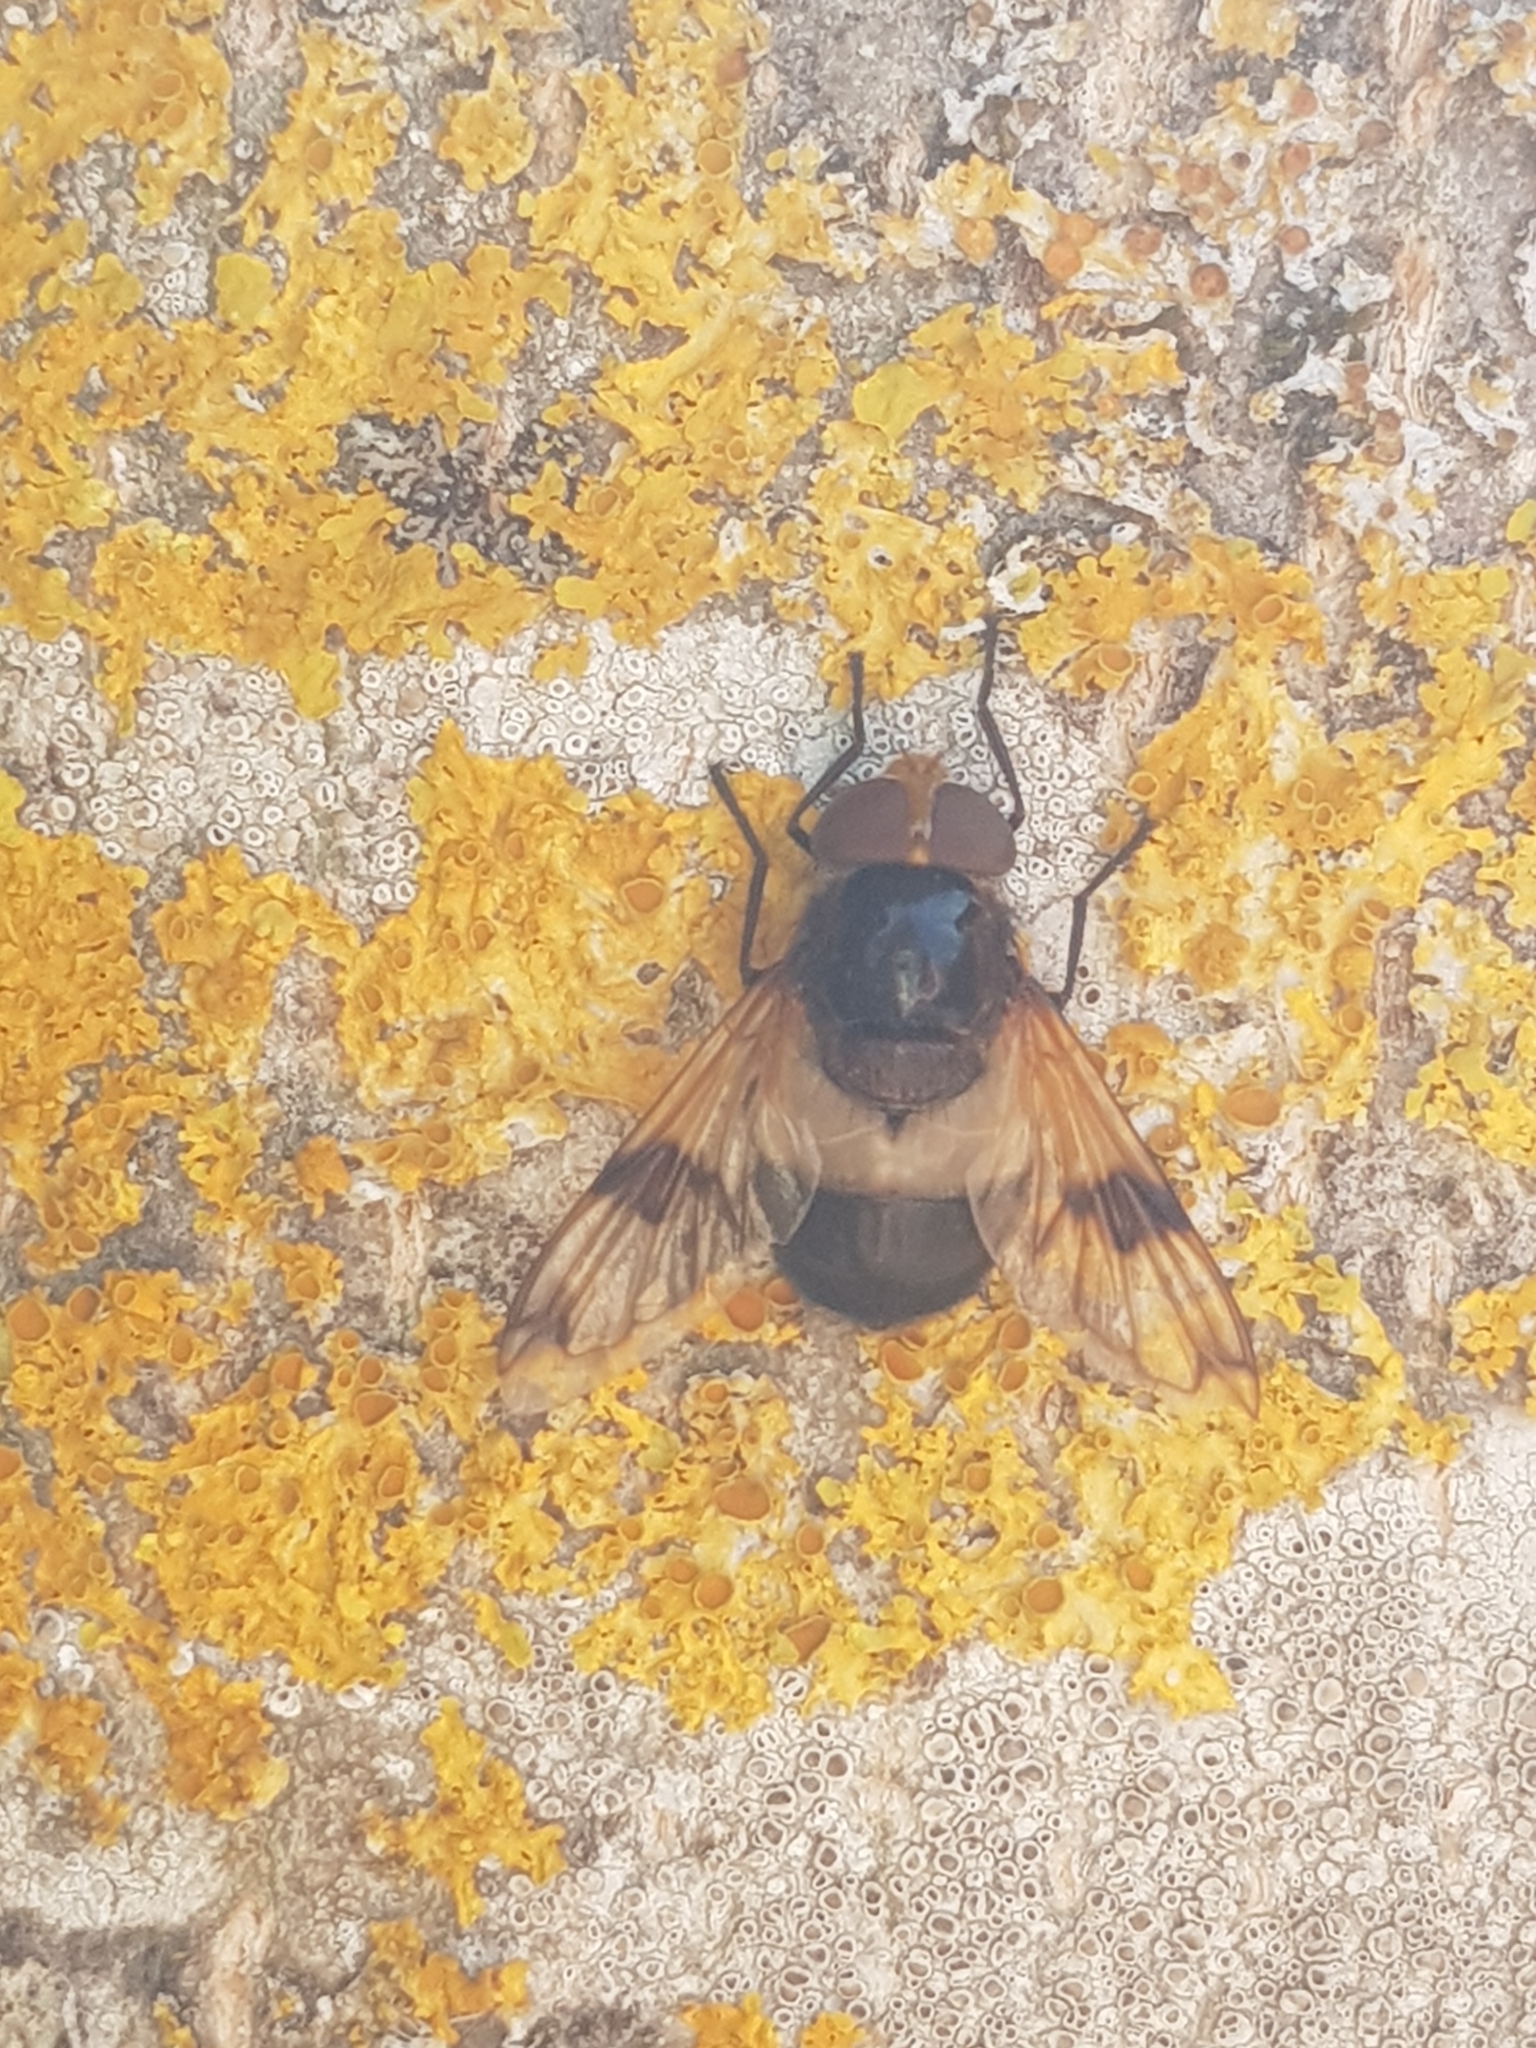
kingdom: Animalia
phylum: Arthropoda
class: Insecta
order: Diptera
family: Syrphidae
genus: Volucella
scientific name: Volucella pellucens
